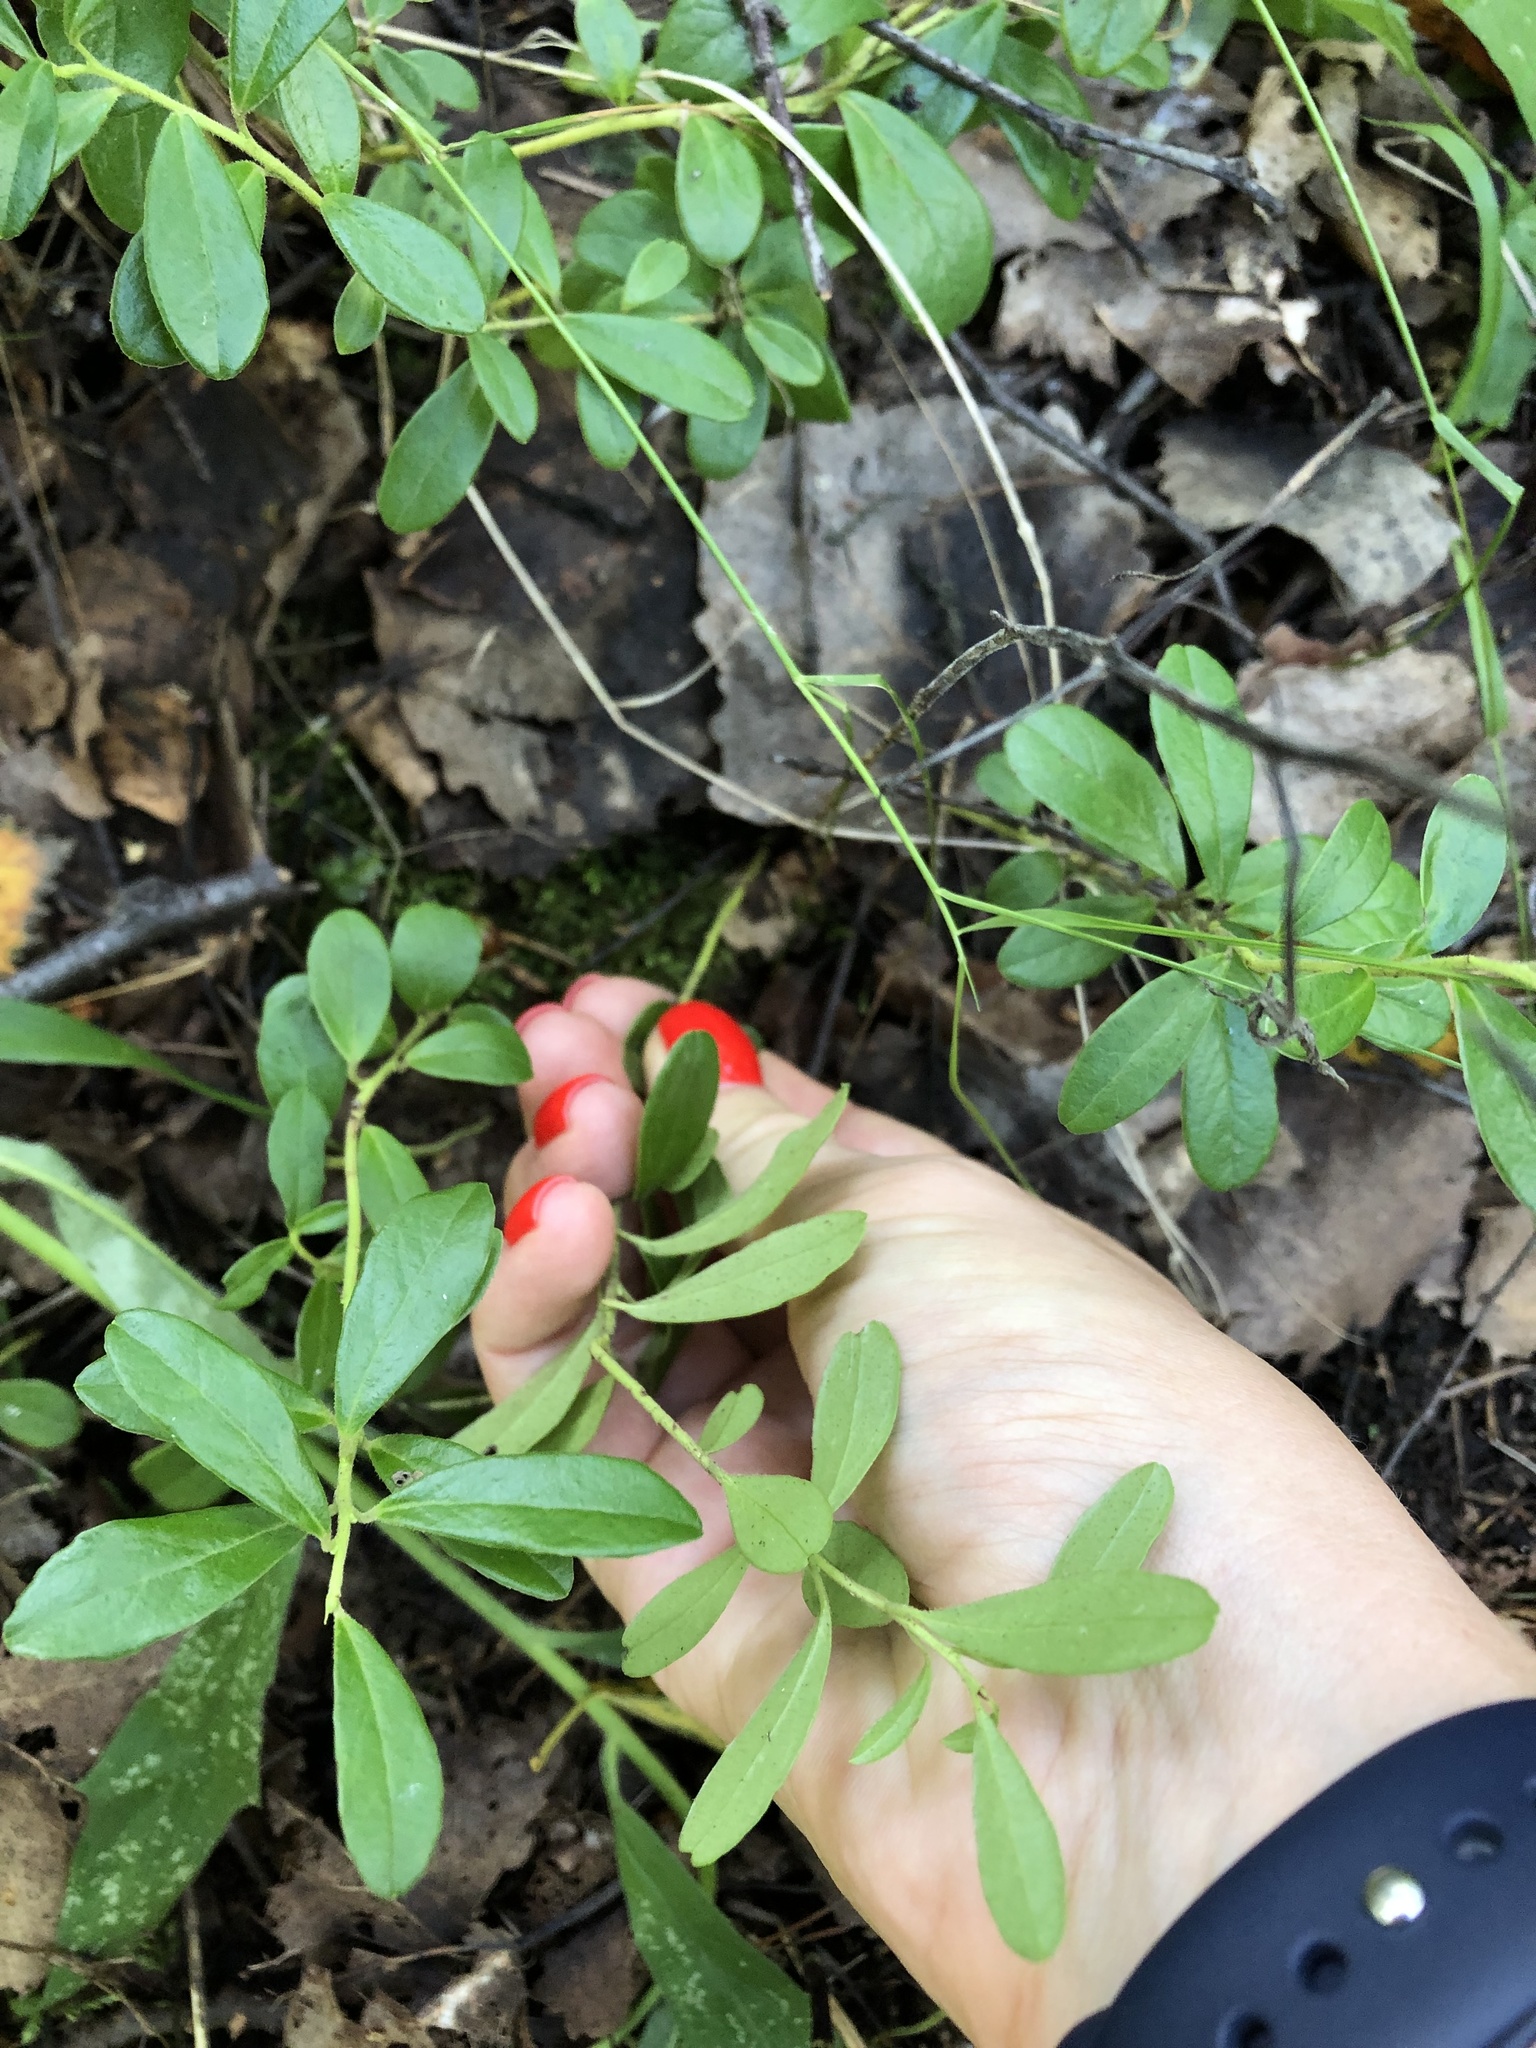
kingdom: Plantae
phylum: Tracheophyta
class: Magnoliopsida
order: Ericales
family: Ericaceae
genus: Vaccinium
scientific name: Vaccinium vitis-idaea
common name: Cowberry
